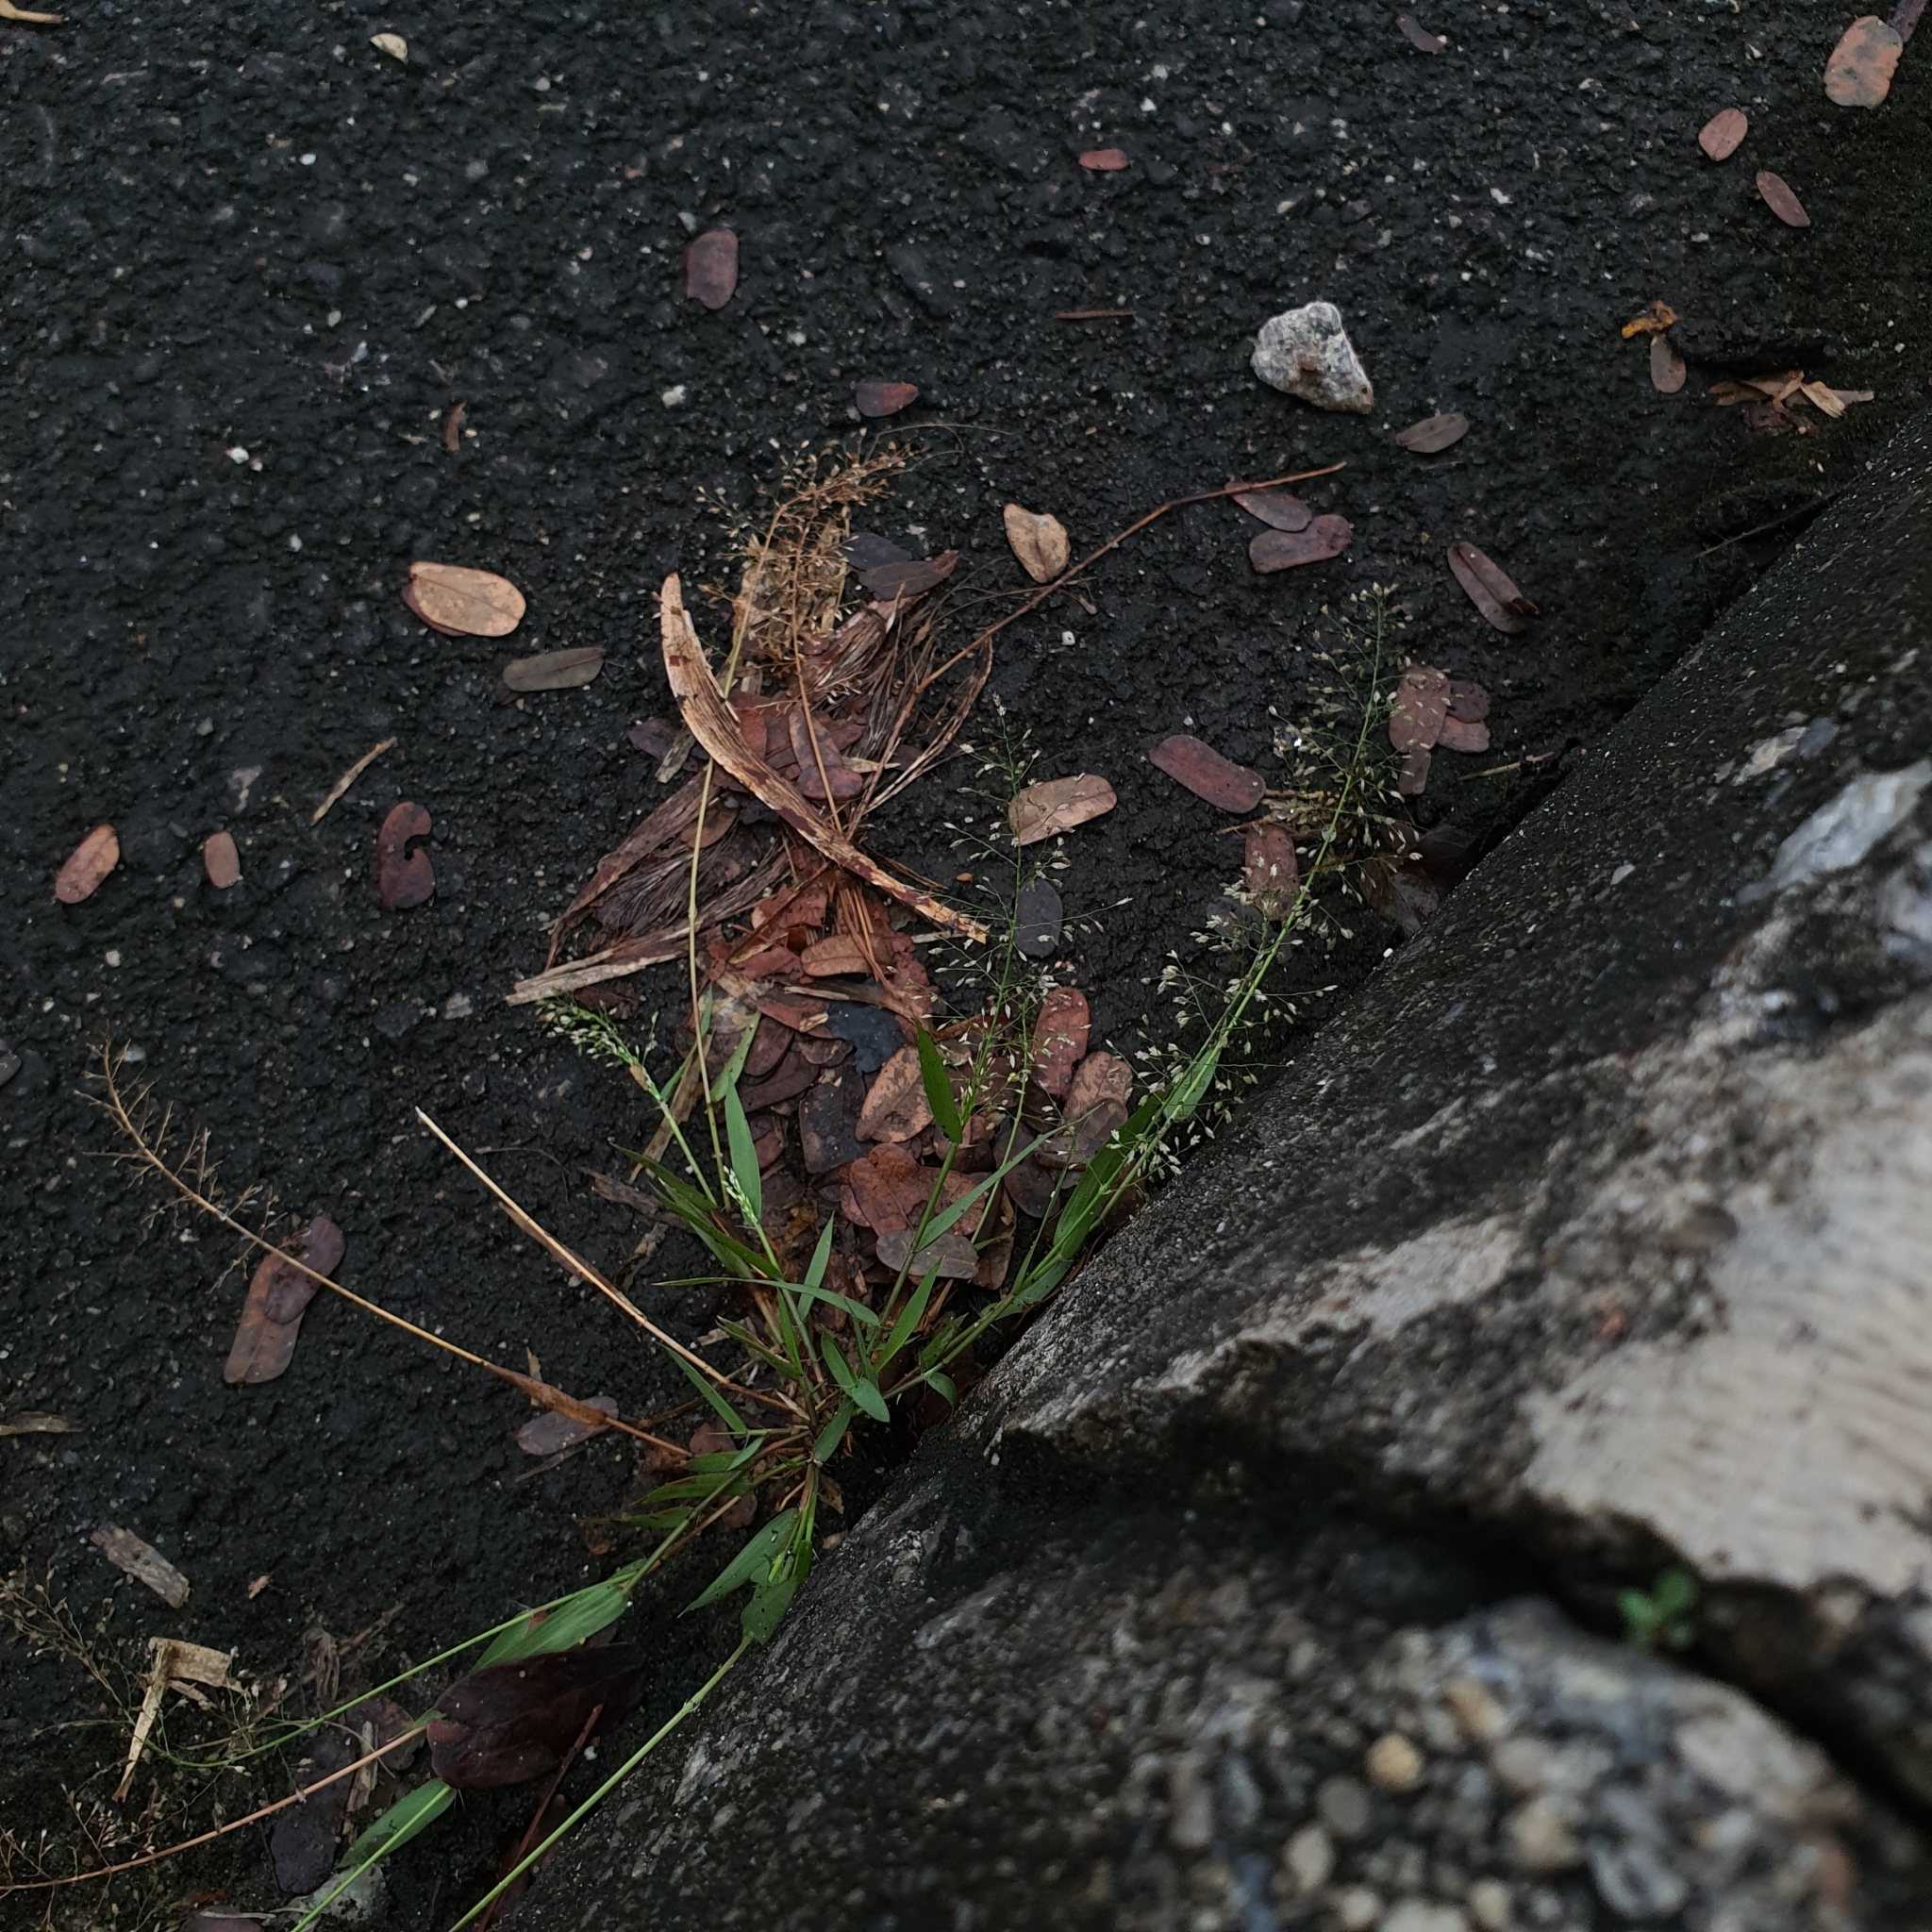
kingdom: Plantae
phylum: Tracheophyta
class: Liliopsida
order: Poales
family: Poaceae
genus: Eragrostis
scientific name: Eragrostis tenella
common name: Japanese lovegrass
